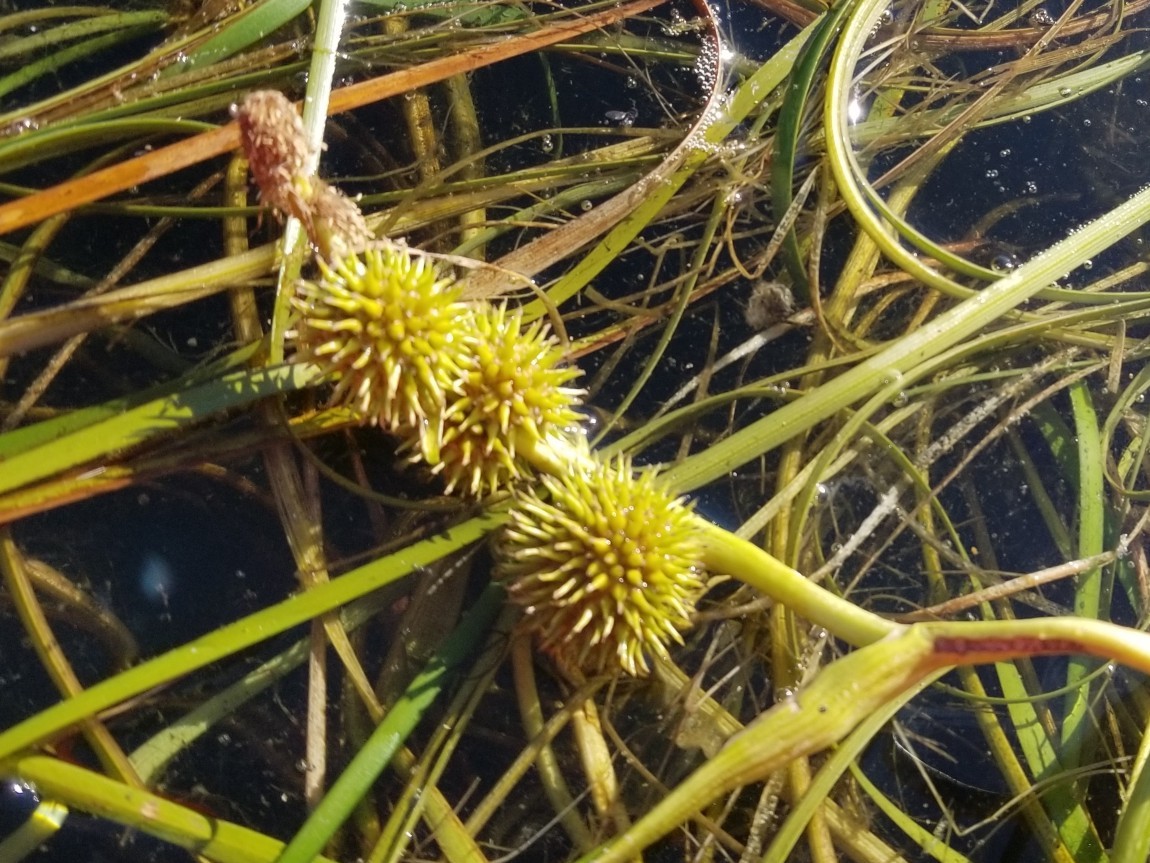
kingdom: Plantae
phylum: Tracheophyta
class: Liliopsida
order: Poales
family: Typhaceae
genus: Sparganium
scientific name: Sparganium angustifolium
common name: Floating bur-reed
